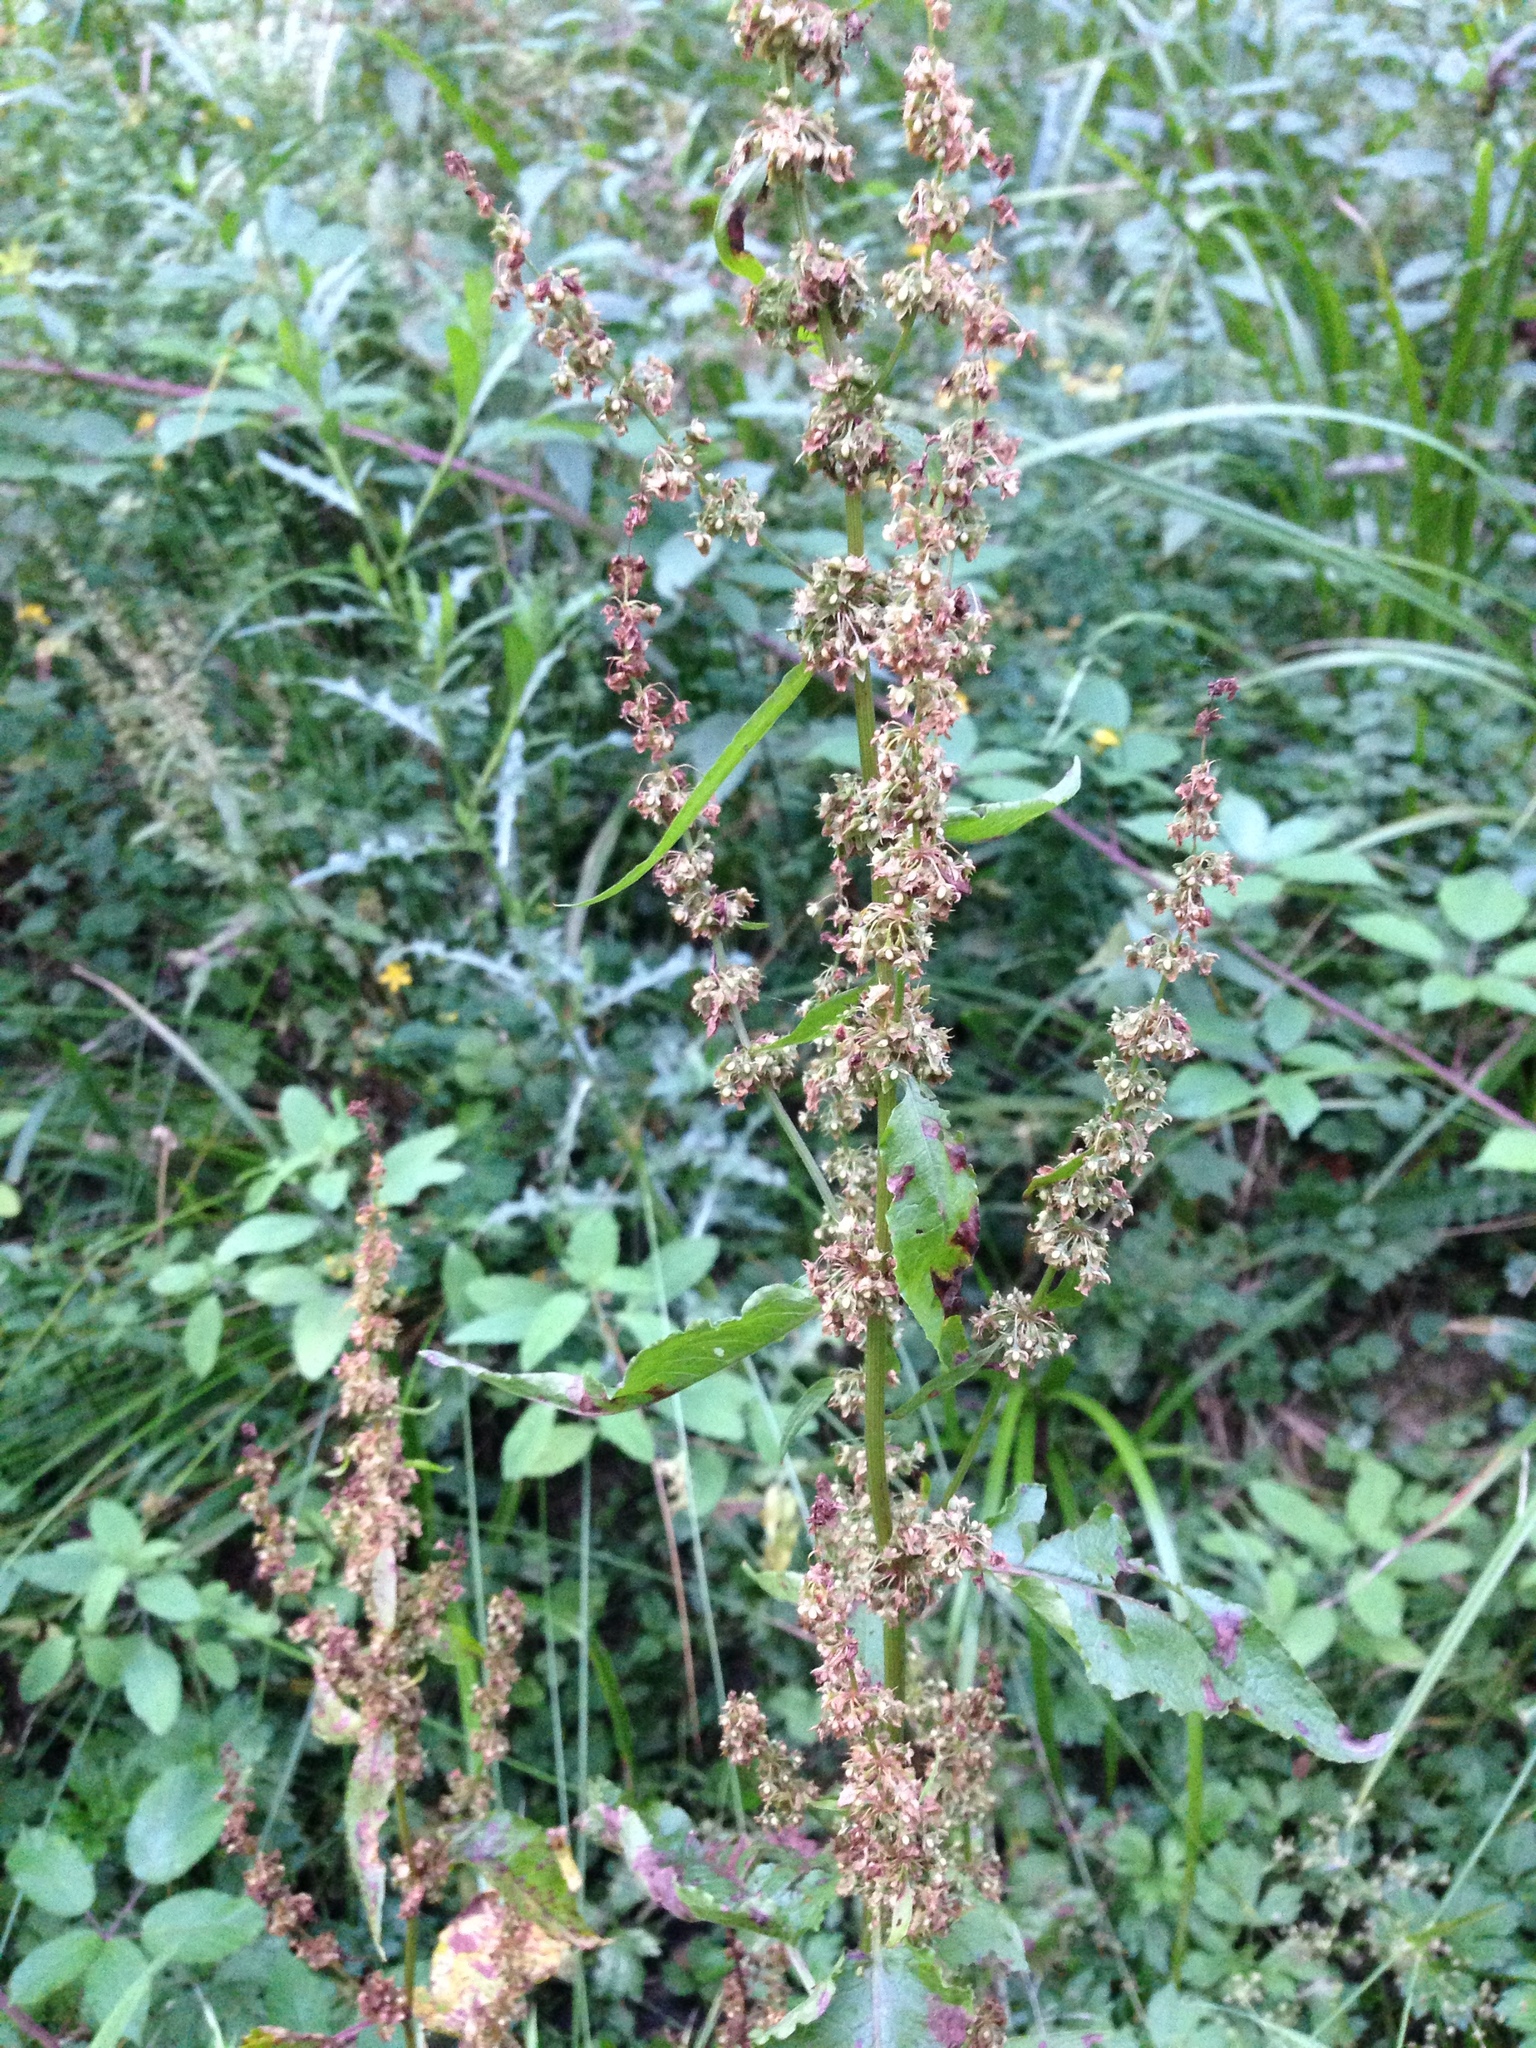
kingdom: Plantae
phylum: Tracheophyta
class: Magnoliopsida
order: Caryophyllales
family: Polygonaceae
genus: Rumex
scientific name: Rumex obtusifolius
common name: Bitter dock
